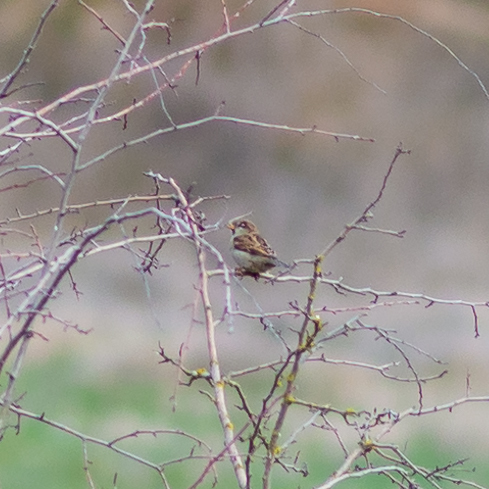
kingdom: Animalia
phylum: Chordata
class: Aves
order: Passeriformes
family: Passeridae
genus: Passer
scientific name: Passer domesticus
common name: House sparrow
